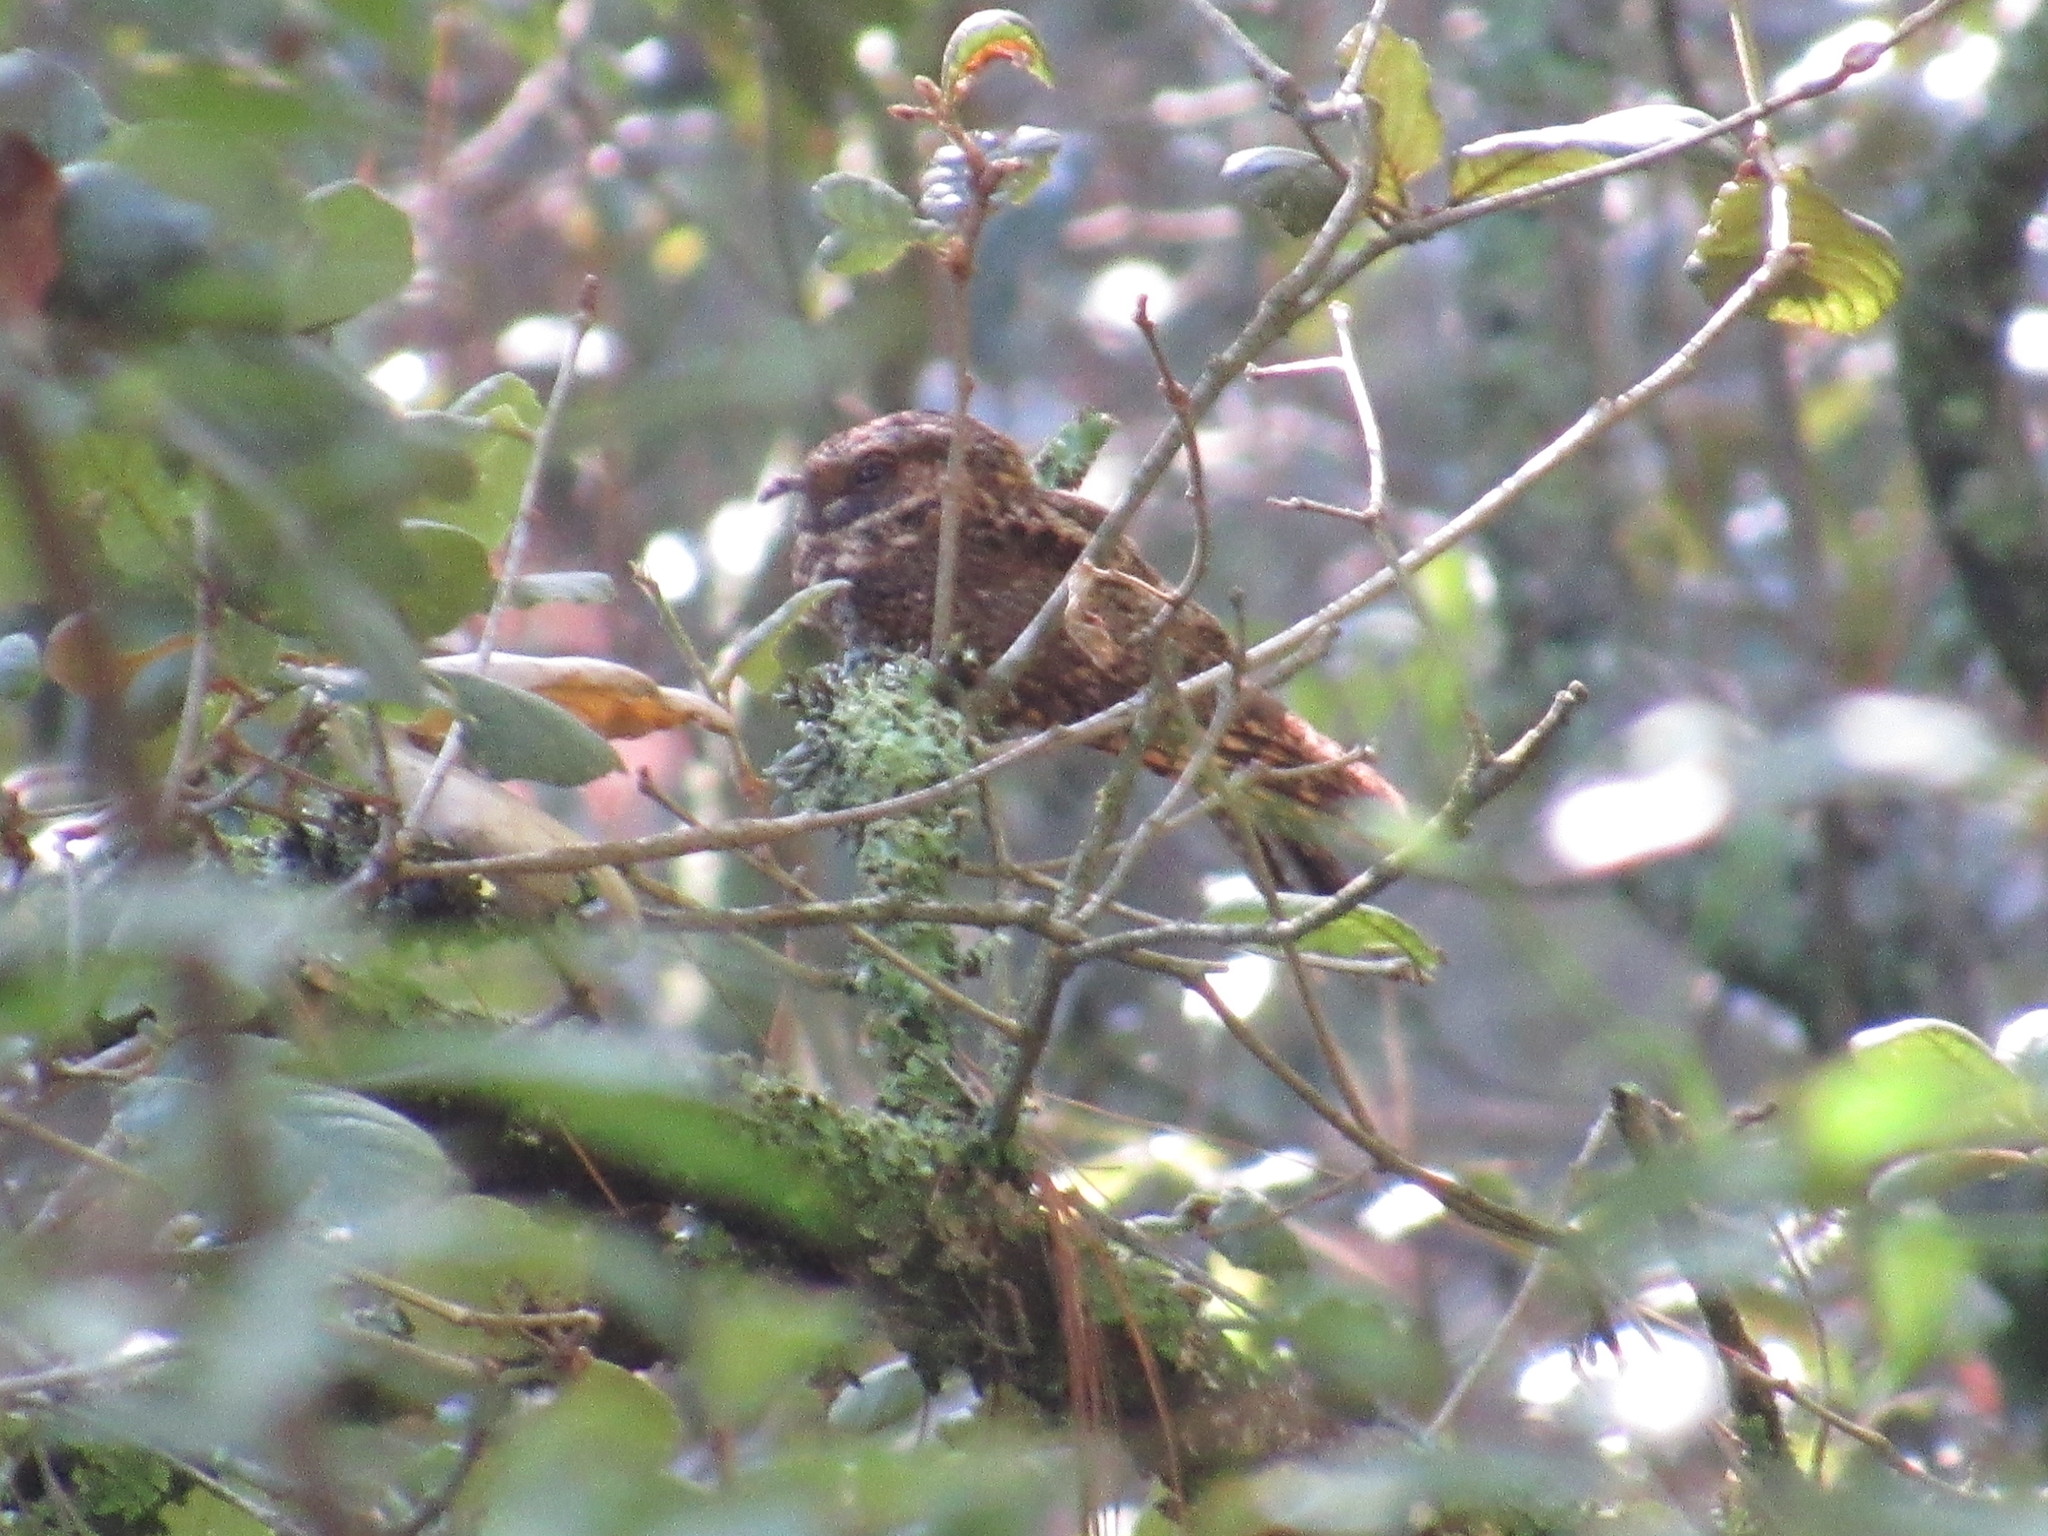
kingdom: Animalia
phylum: Chordata
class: Aves
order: Caprimulgiformes
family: Caprimulgidae
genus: Antrostomus
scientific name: Antrostomus arizonae
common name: Mexican whip-poor-will
